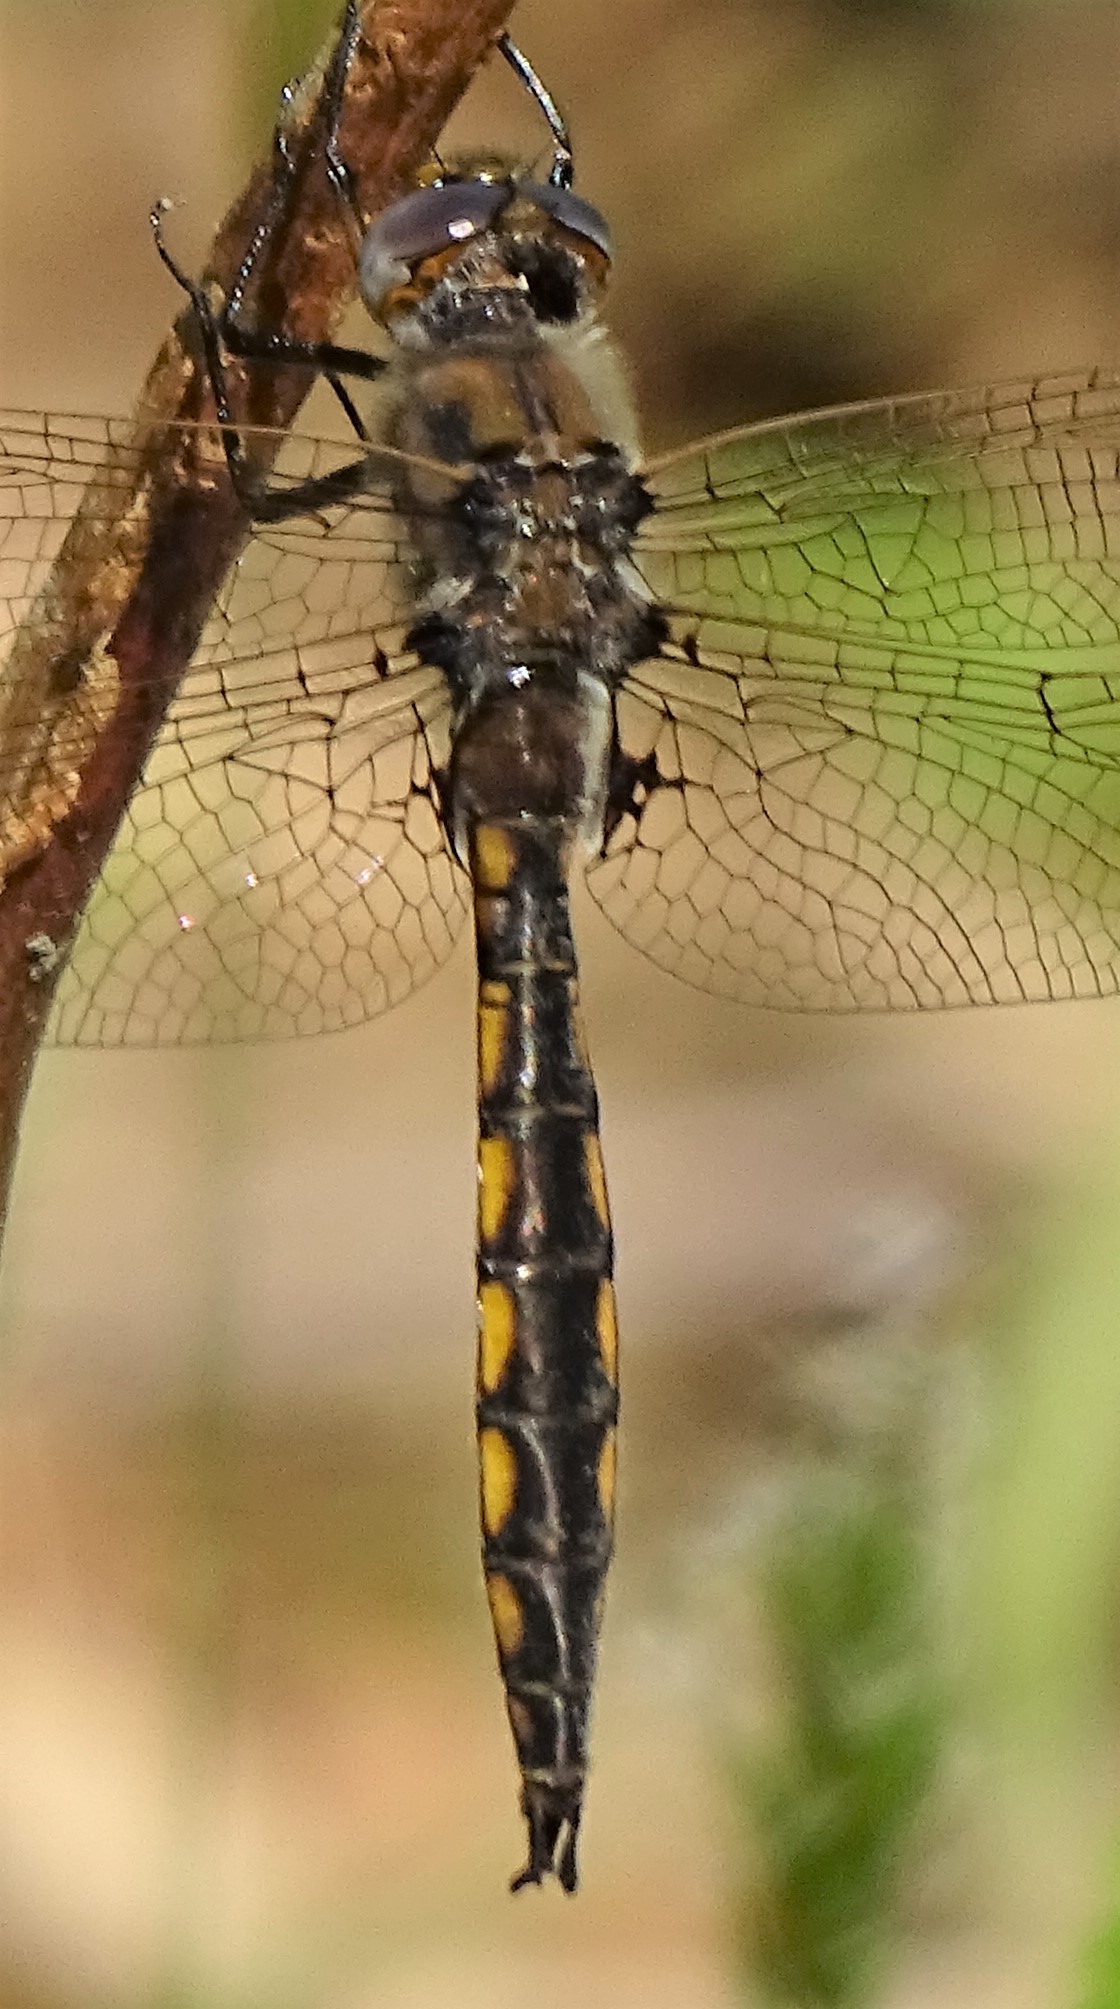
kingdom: Animalia
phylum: Arthropoda
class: Insecta
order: Odonata
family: Corduliidae
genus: Epitheca
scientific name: Epitheca canis
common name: Beaverpond baskettail
